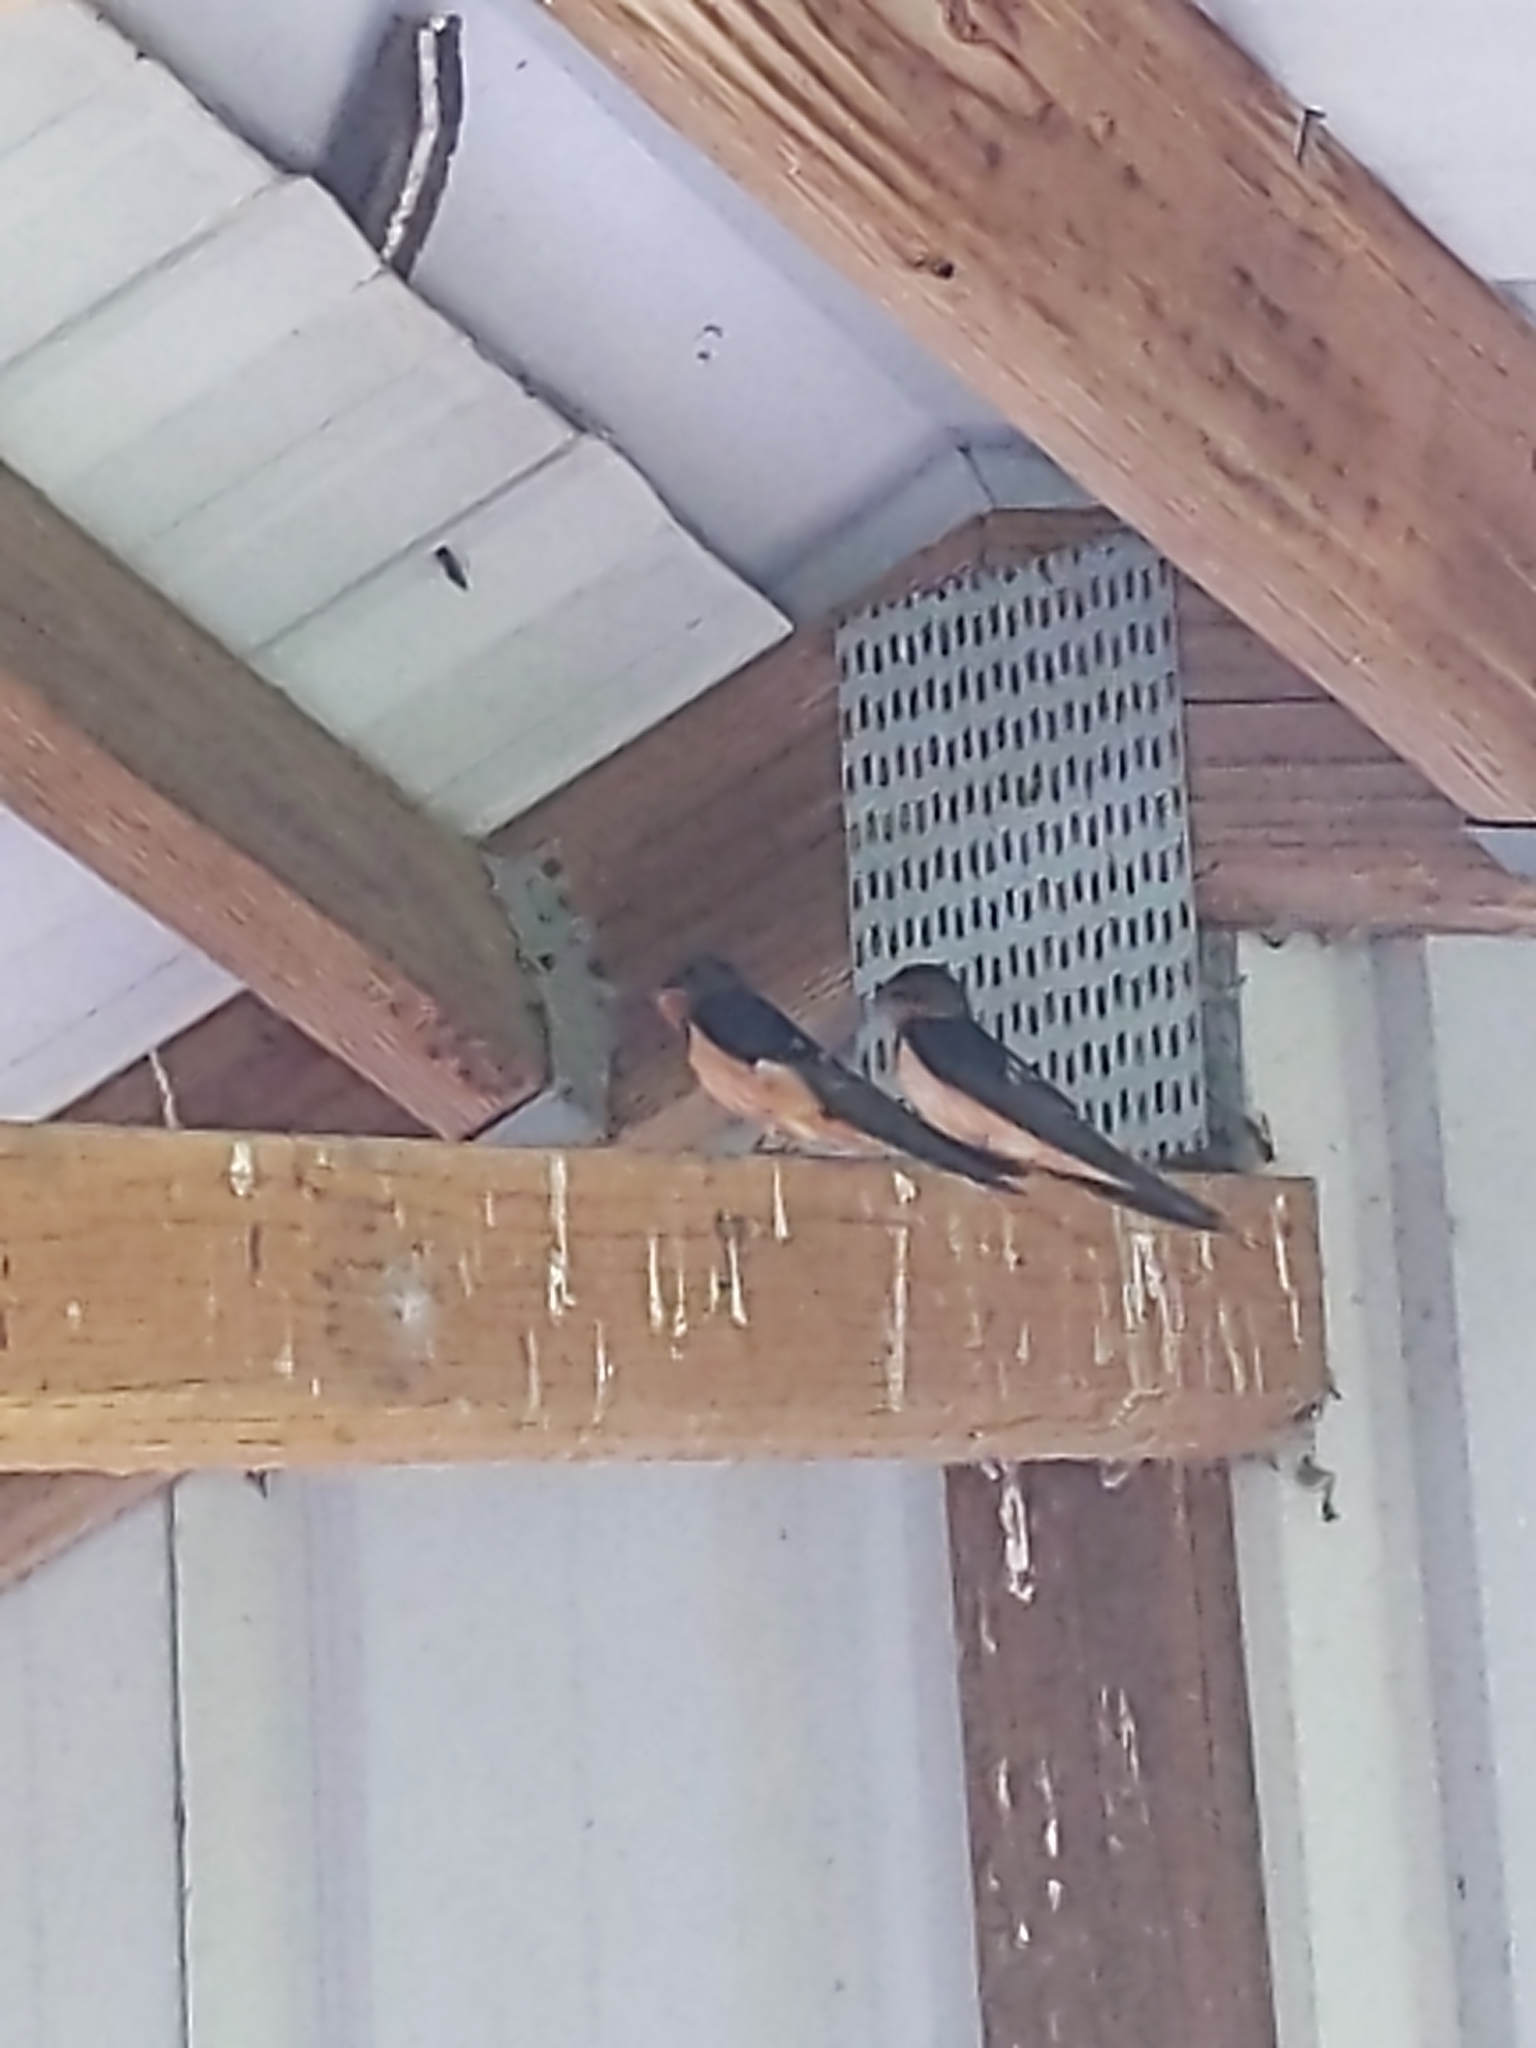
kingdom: Animalia
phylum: Chordata
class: Aves
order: Passeriformes
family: Hirundinidae
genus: Hirundo
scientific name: Hirundo rustica
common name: Barn swallow
